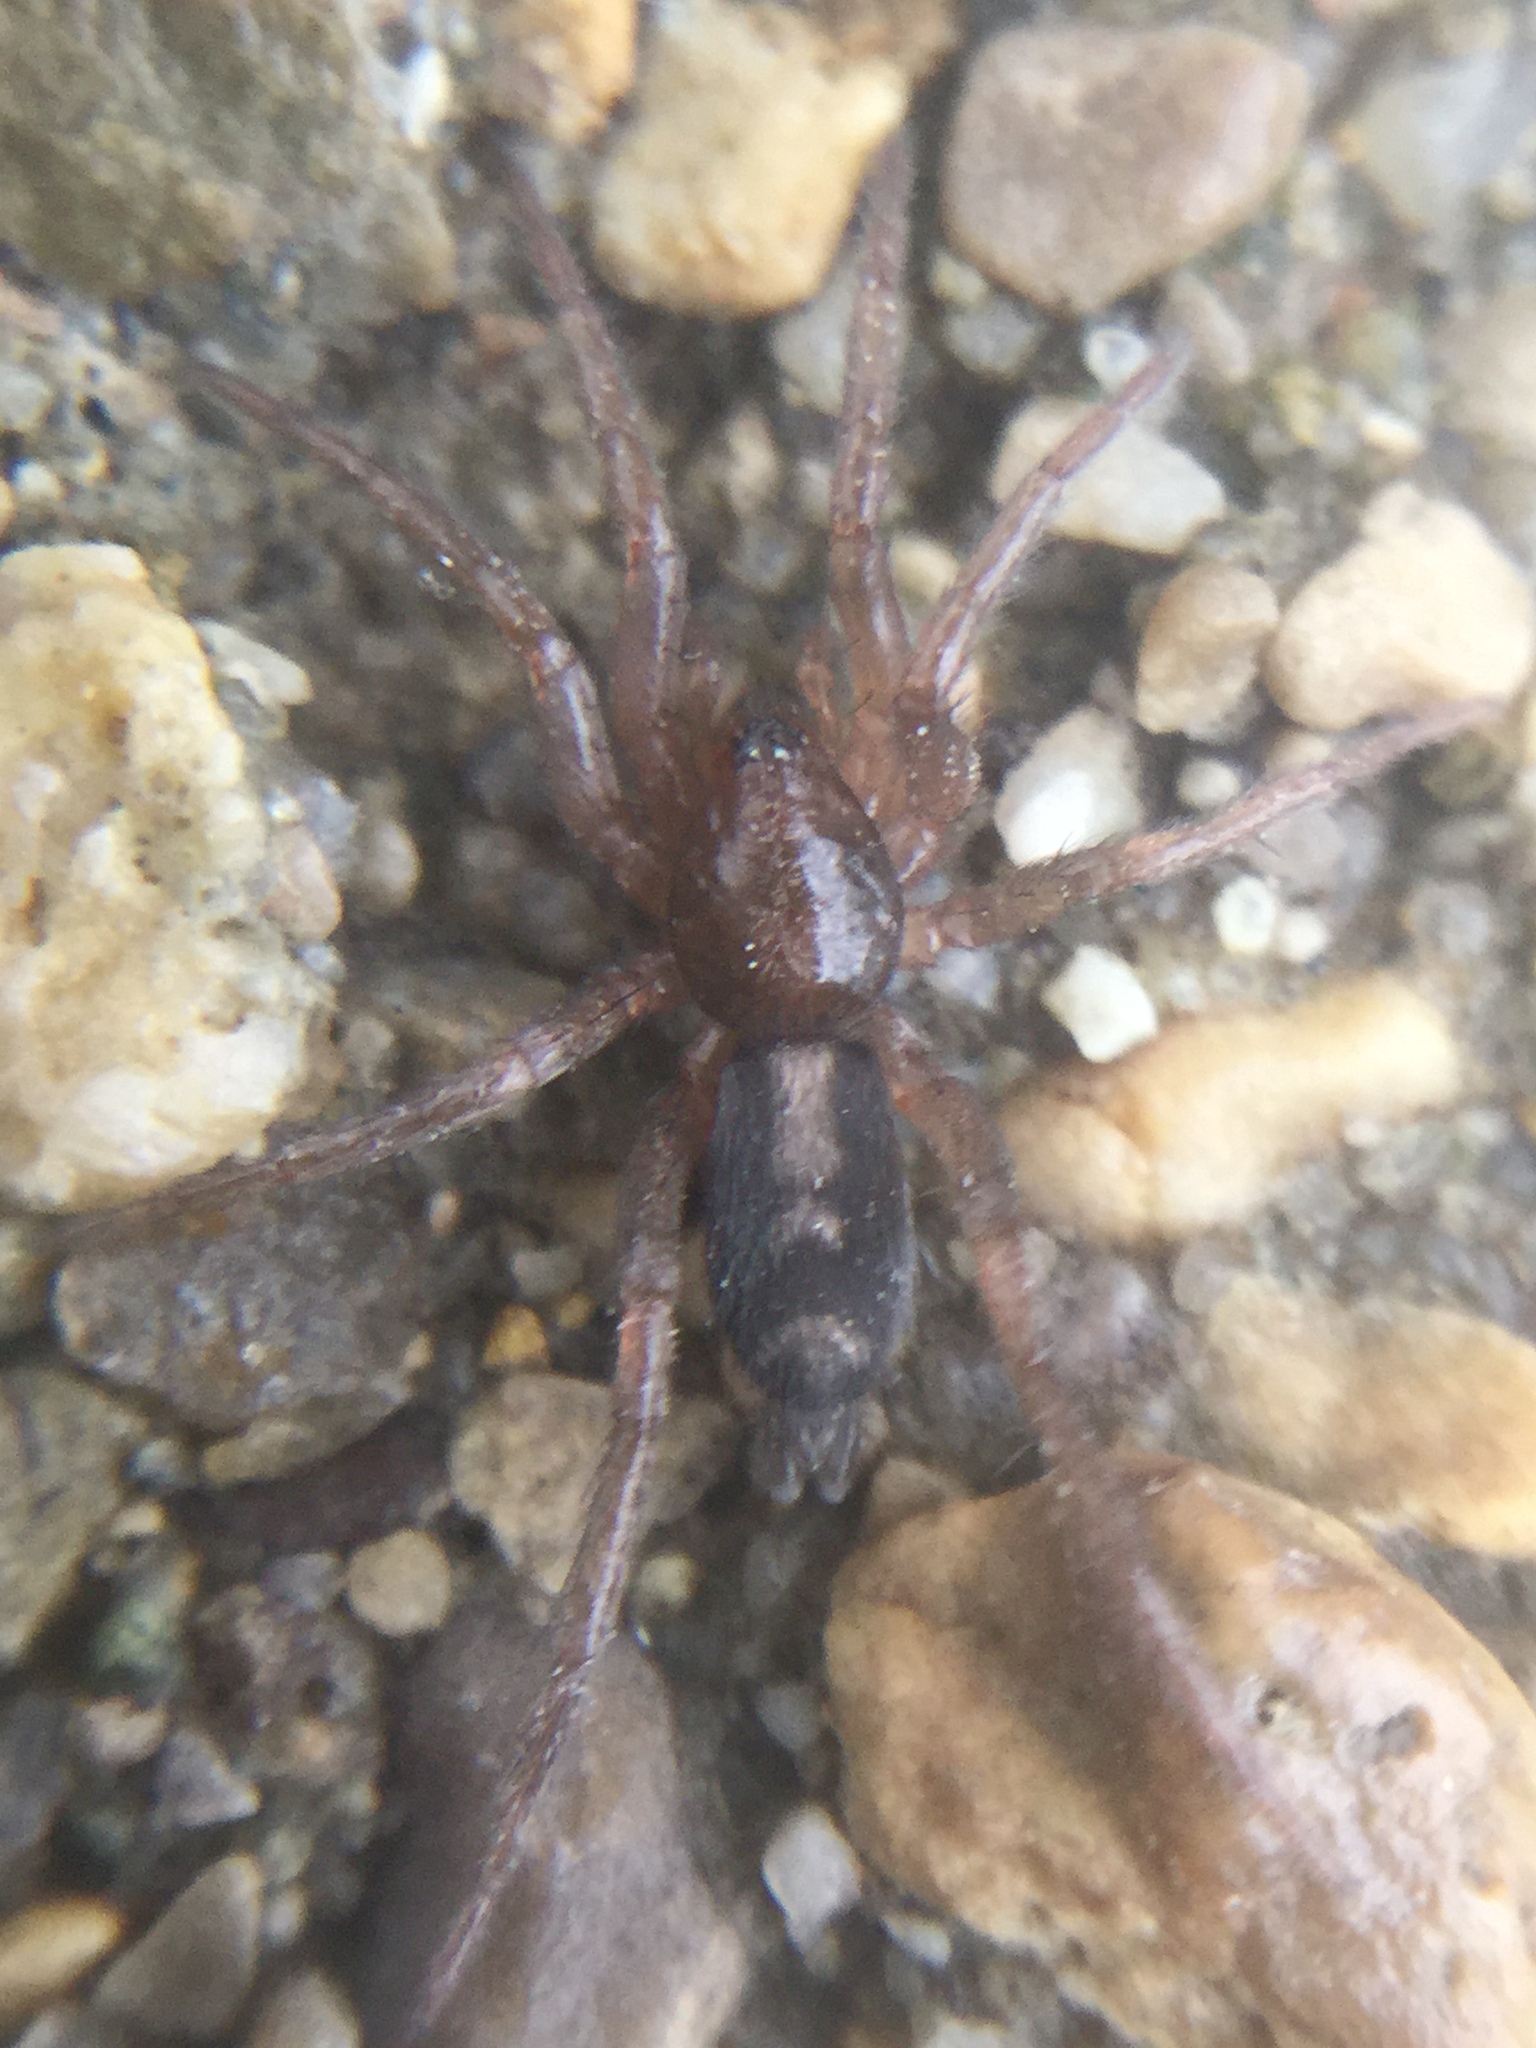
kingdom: Animalia
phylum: Arthropoda
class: Arachnida
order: Araneae
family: Gnaphosidae
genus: Herpyllus
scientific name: Herpyllus ecclesiasticus
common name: Eastern parson spider
